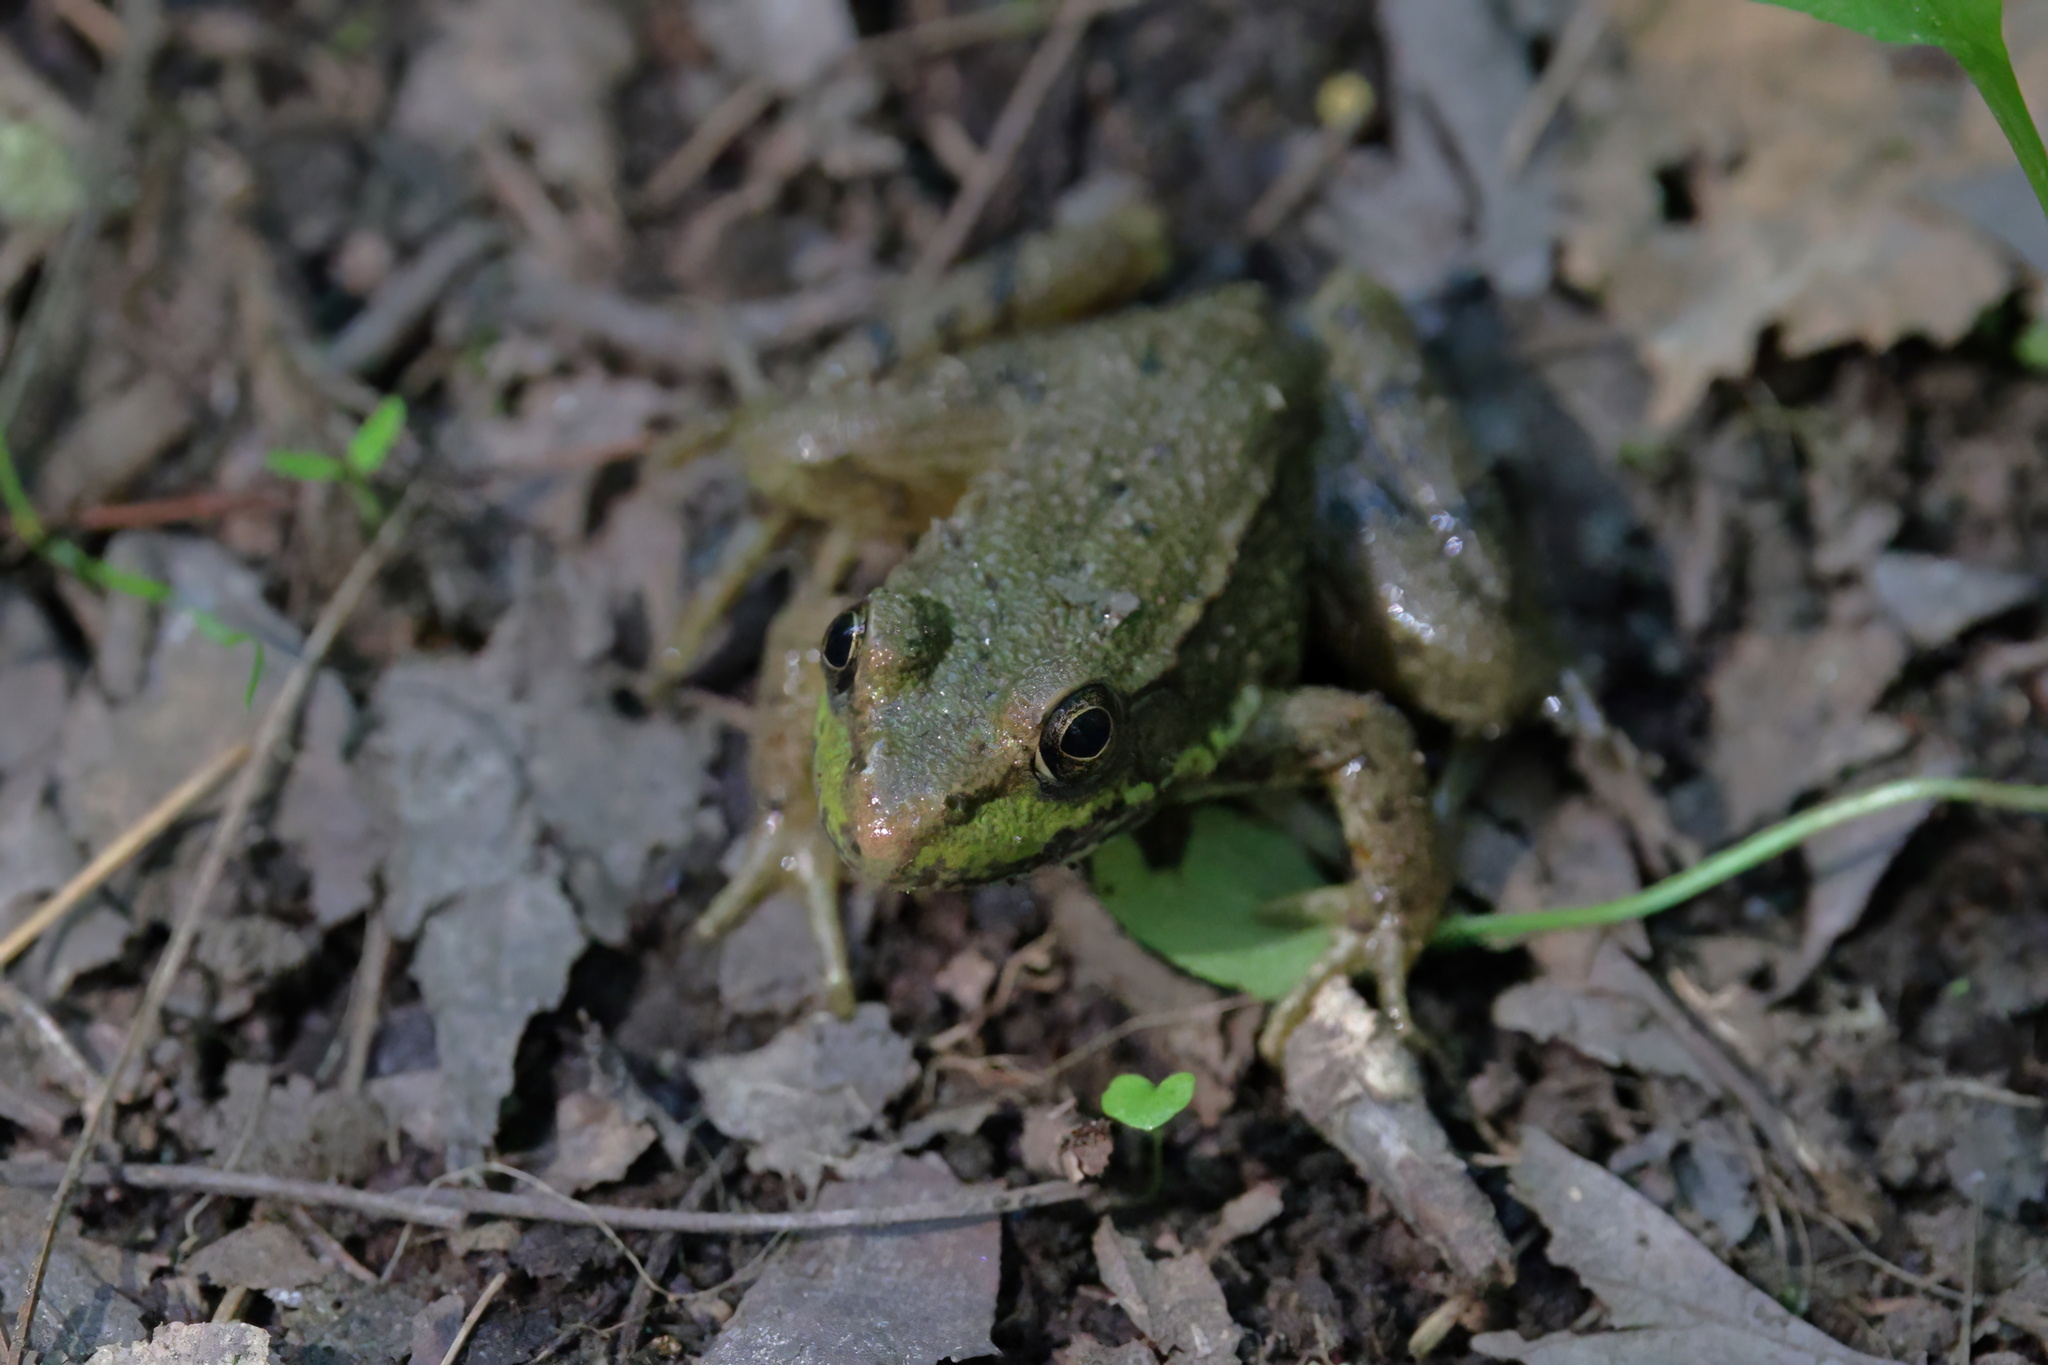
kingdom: Animalia
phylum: Chordata
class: Amphibia
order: Anura
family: Ranidae
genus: Lithobates
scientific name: Lithobates clamitans
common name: Green frog
